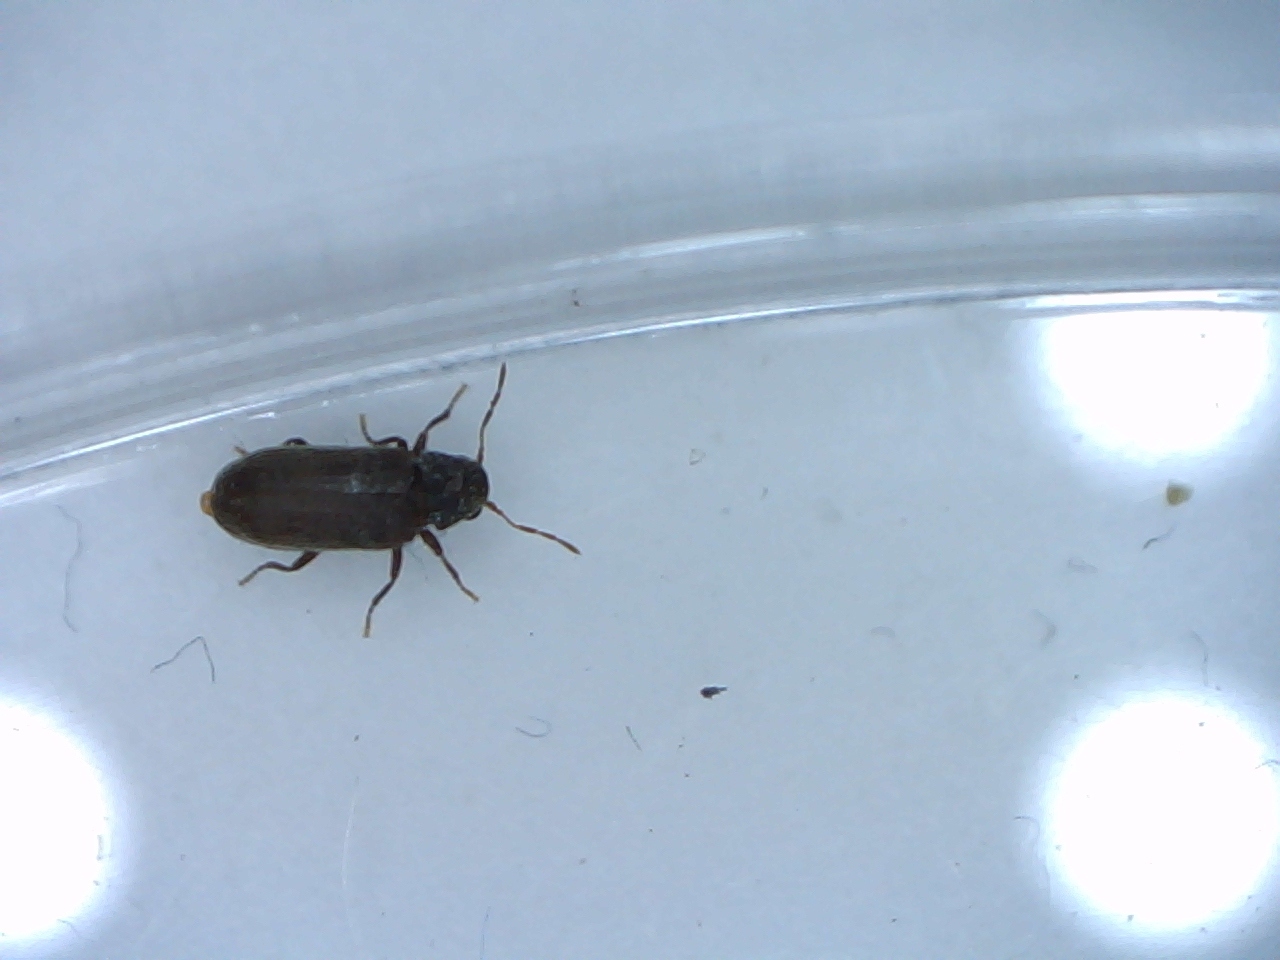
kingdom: Animalia
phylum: Arthropoda
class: Insecta
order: Coleoptera
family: Anobiidae
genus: Anobium
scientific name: Anobium punctatum
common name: Furniture beetle
